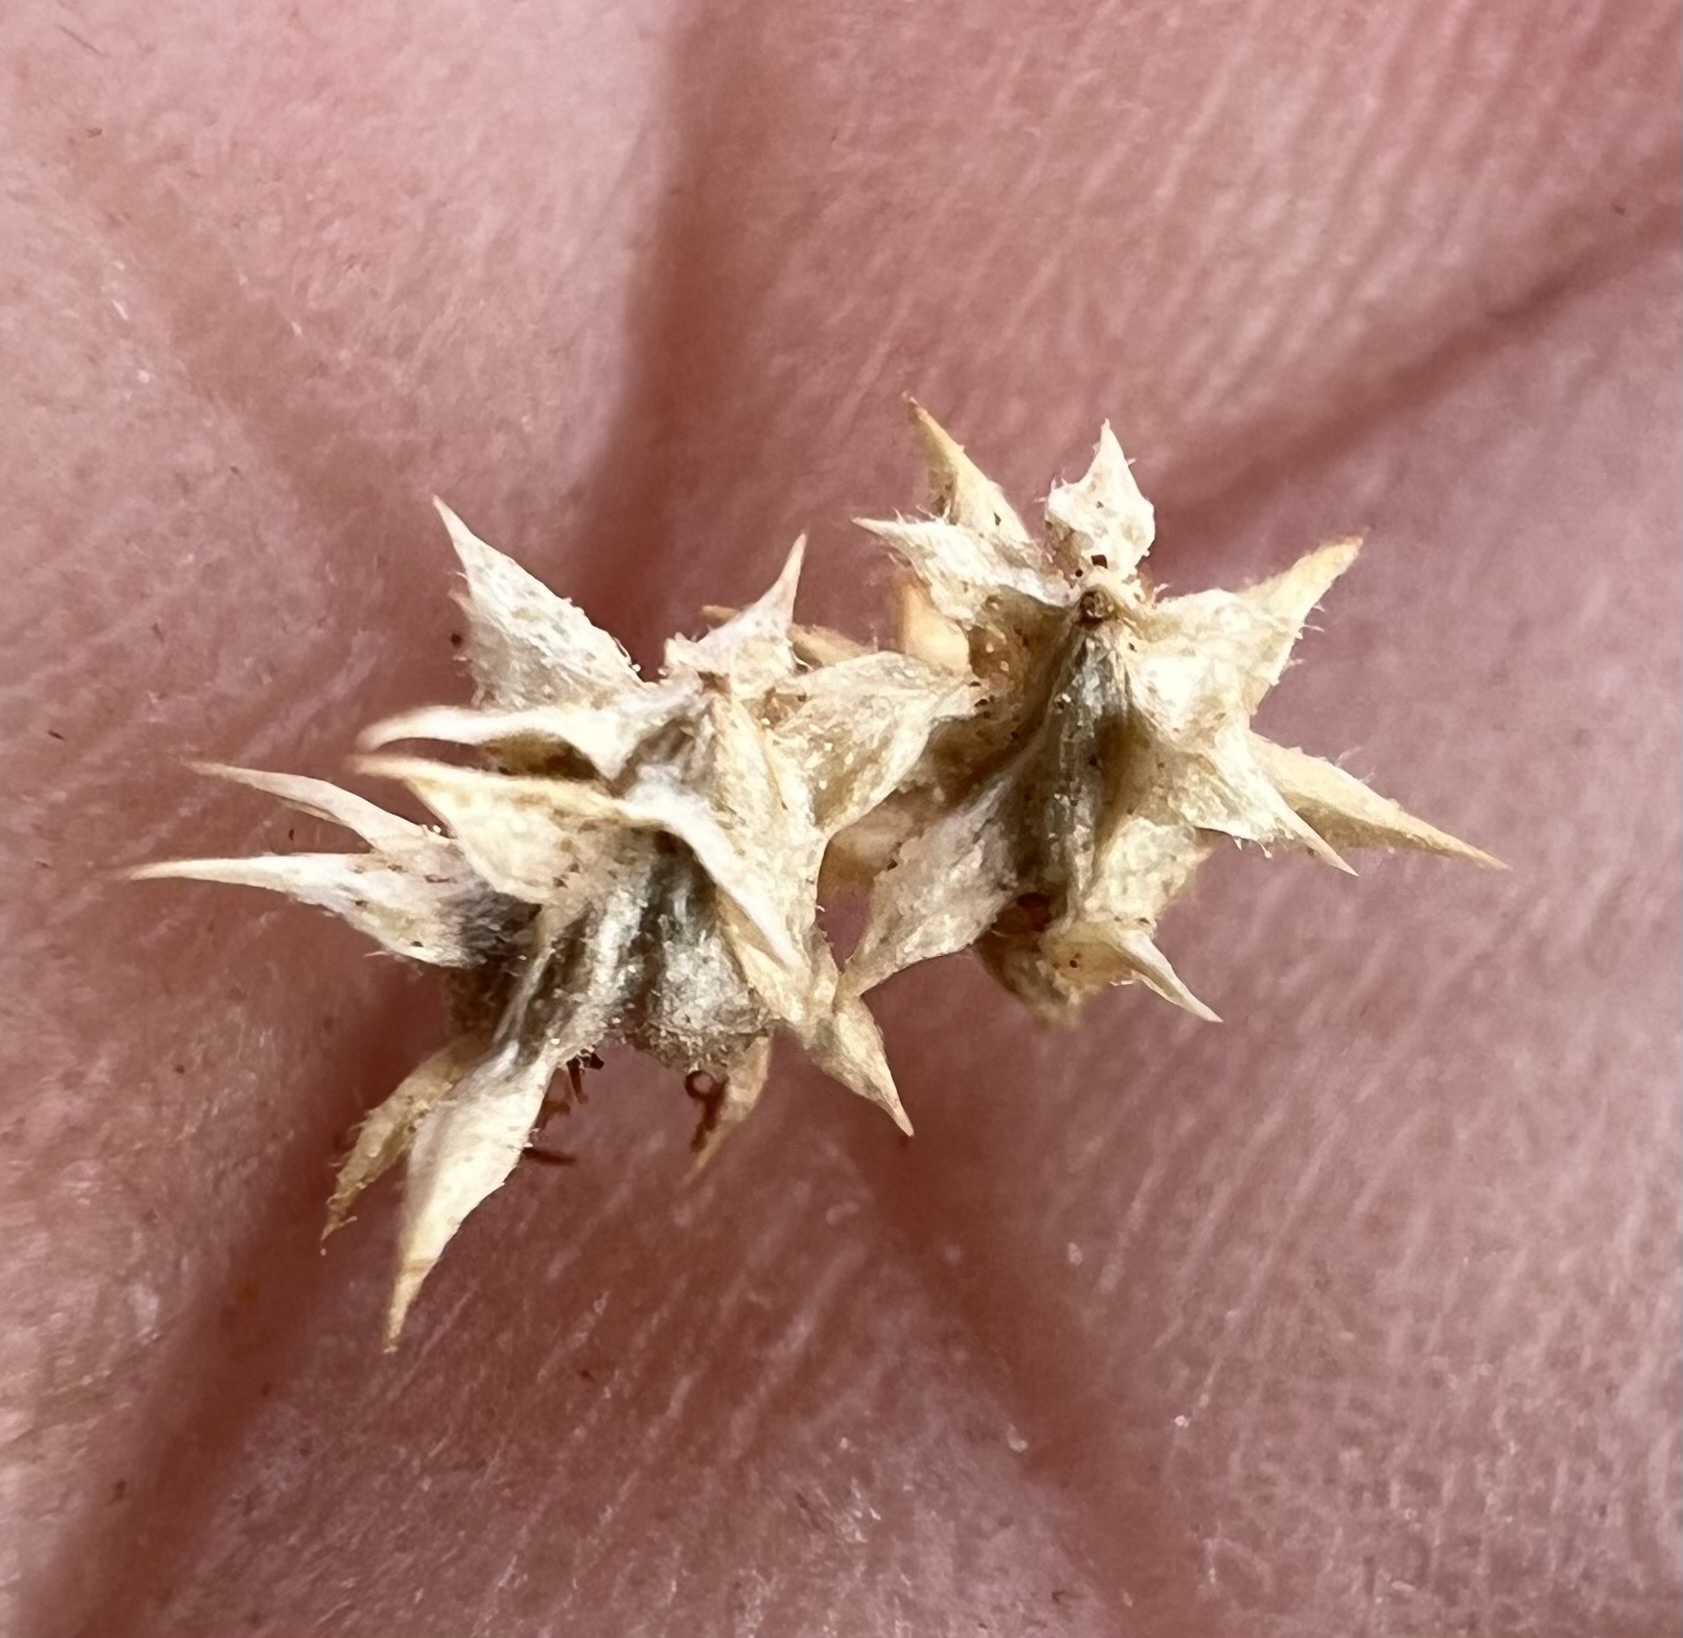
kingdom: Plantae
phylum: Tracheophyta
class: Magnoliopsida
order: Asterales
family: Asteraceae
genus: Ambrosia
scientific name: Ambrosia dumosa
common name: Bur-sage
